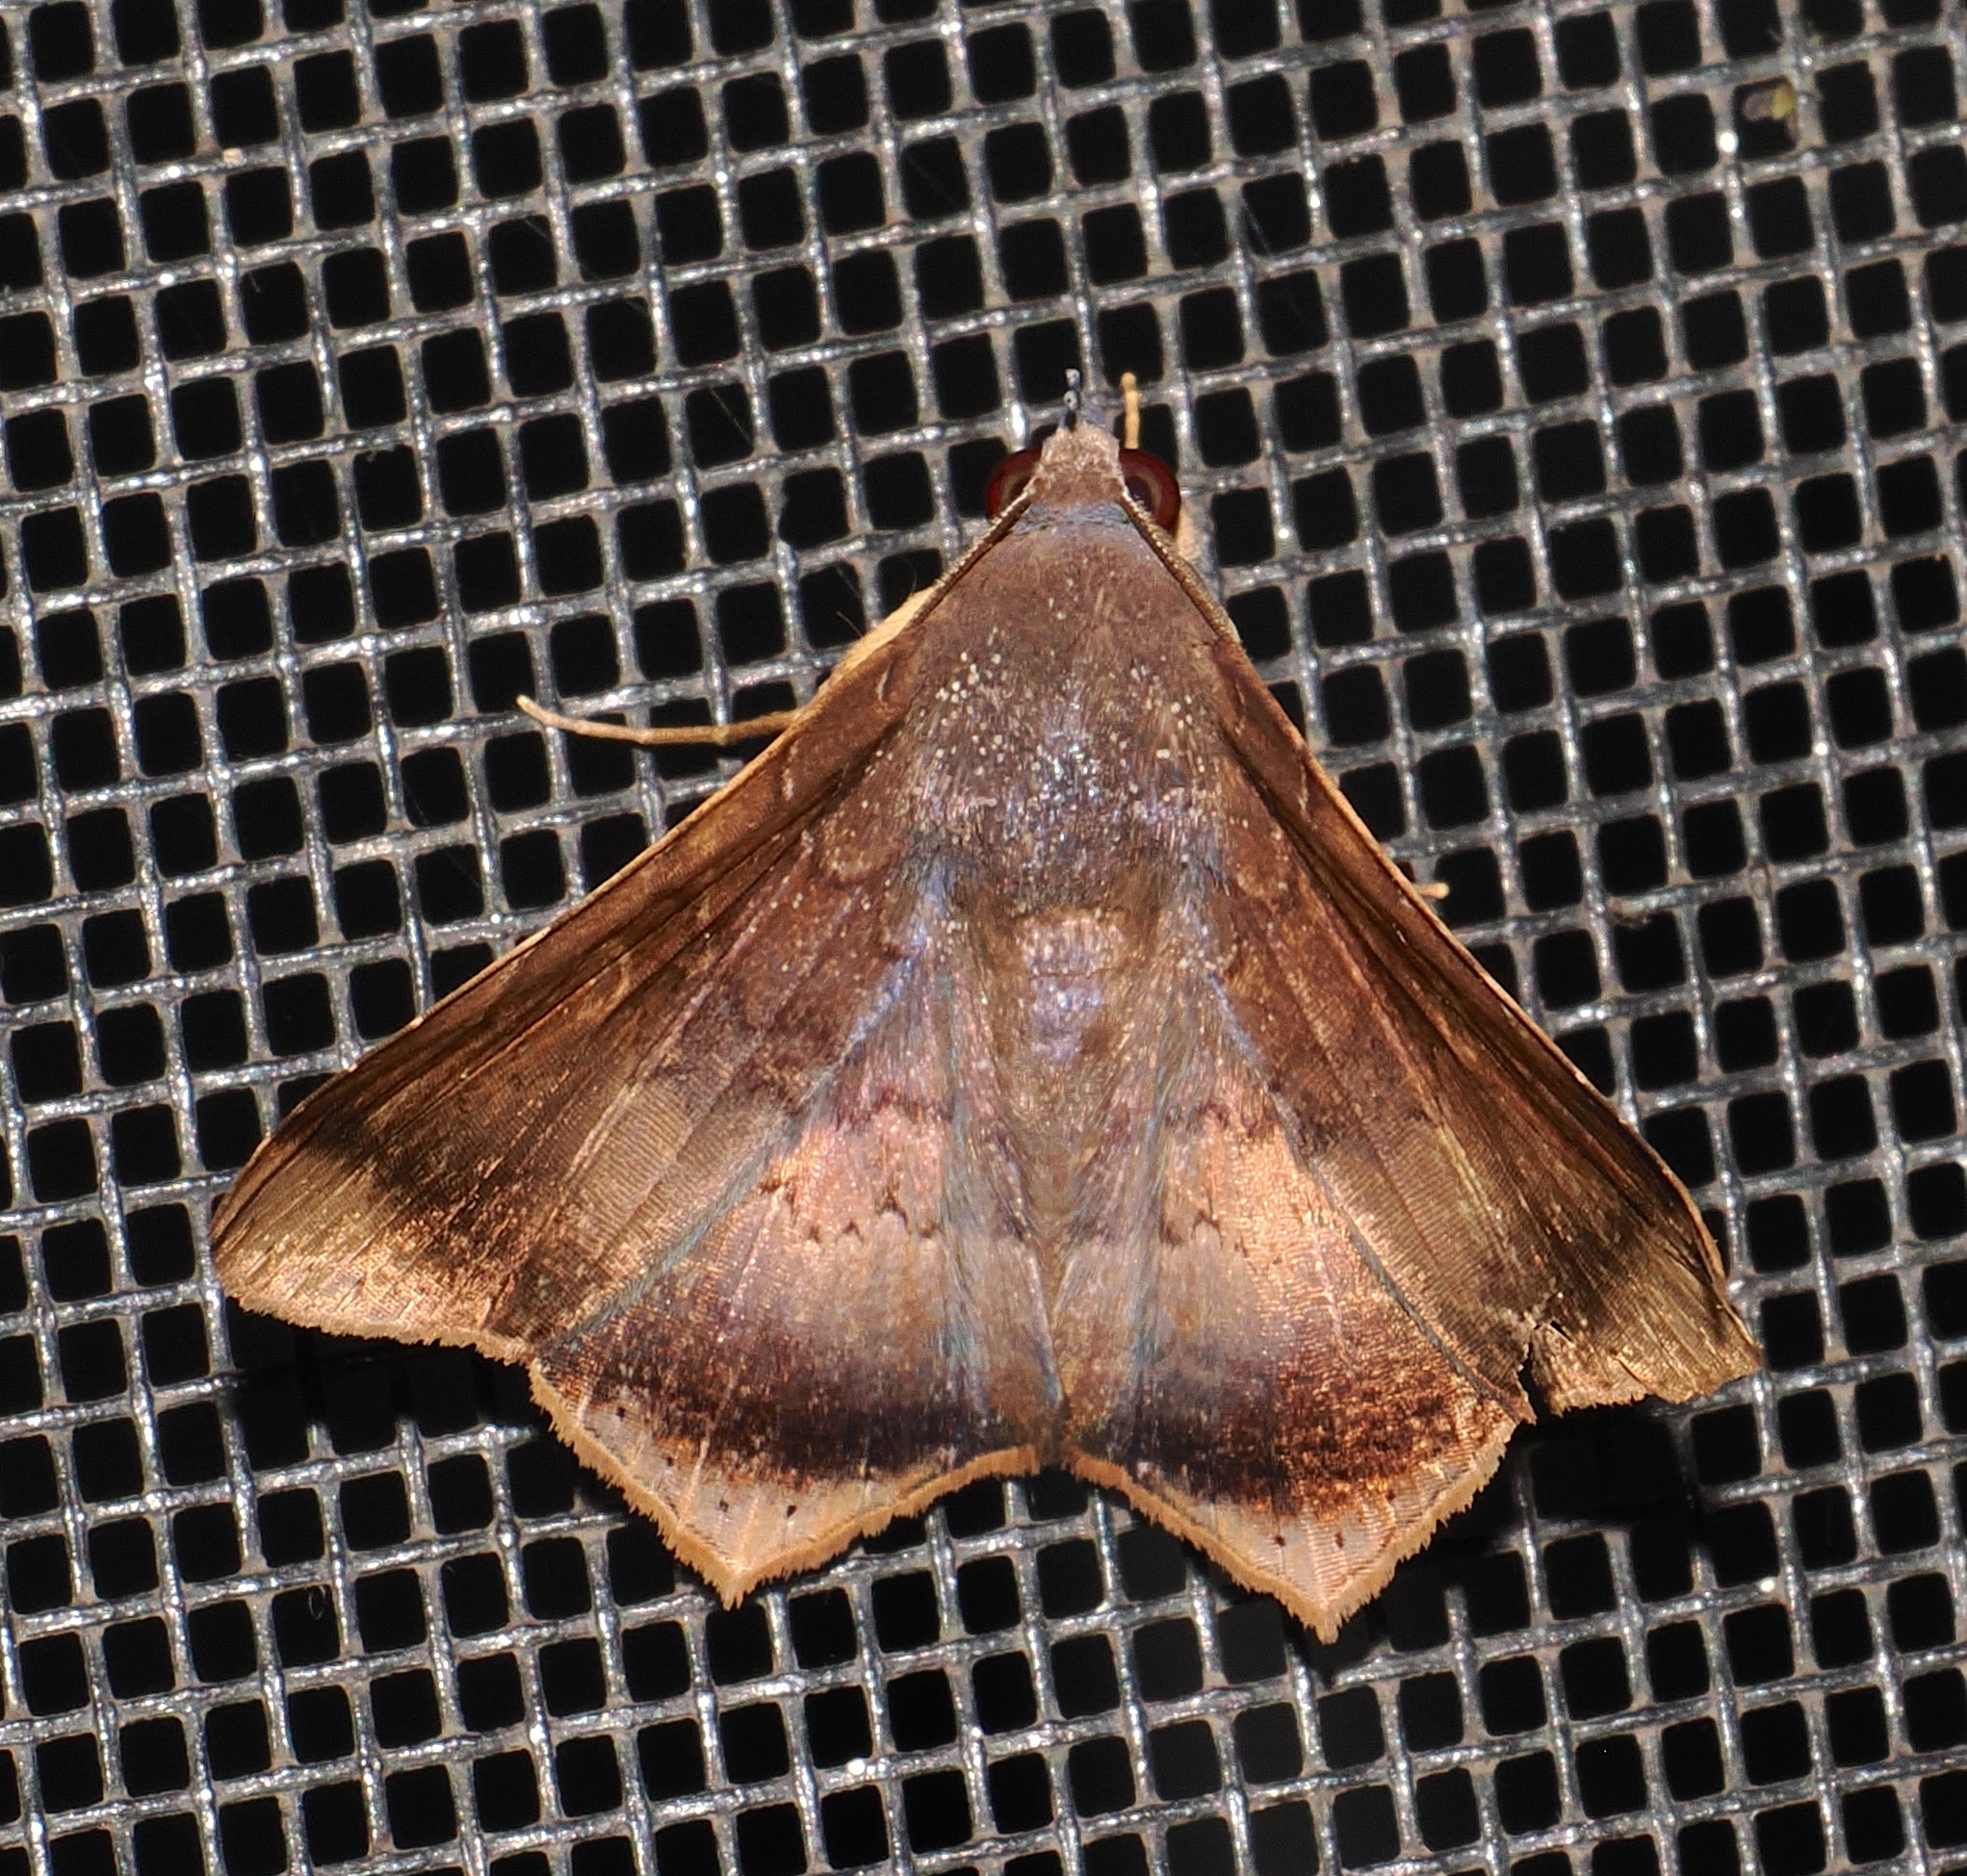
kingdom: Animalia
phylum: Arthropoda
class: Insecta
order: Lepidoptera
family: Erebidae
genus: Euclystis
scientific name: Euclystis gorge
